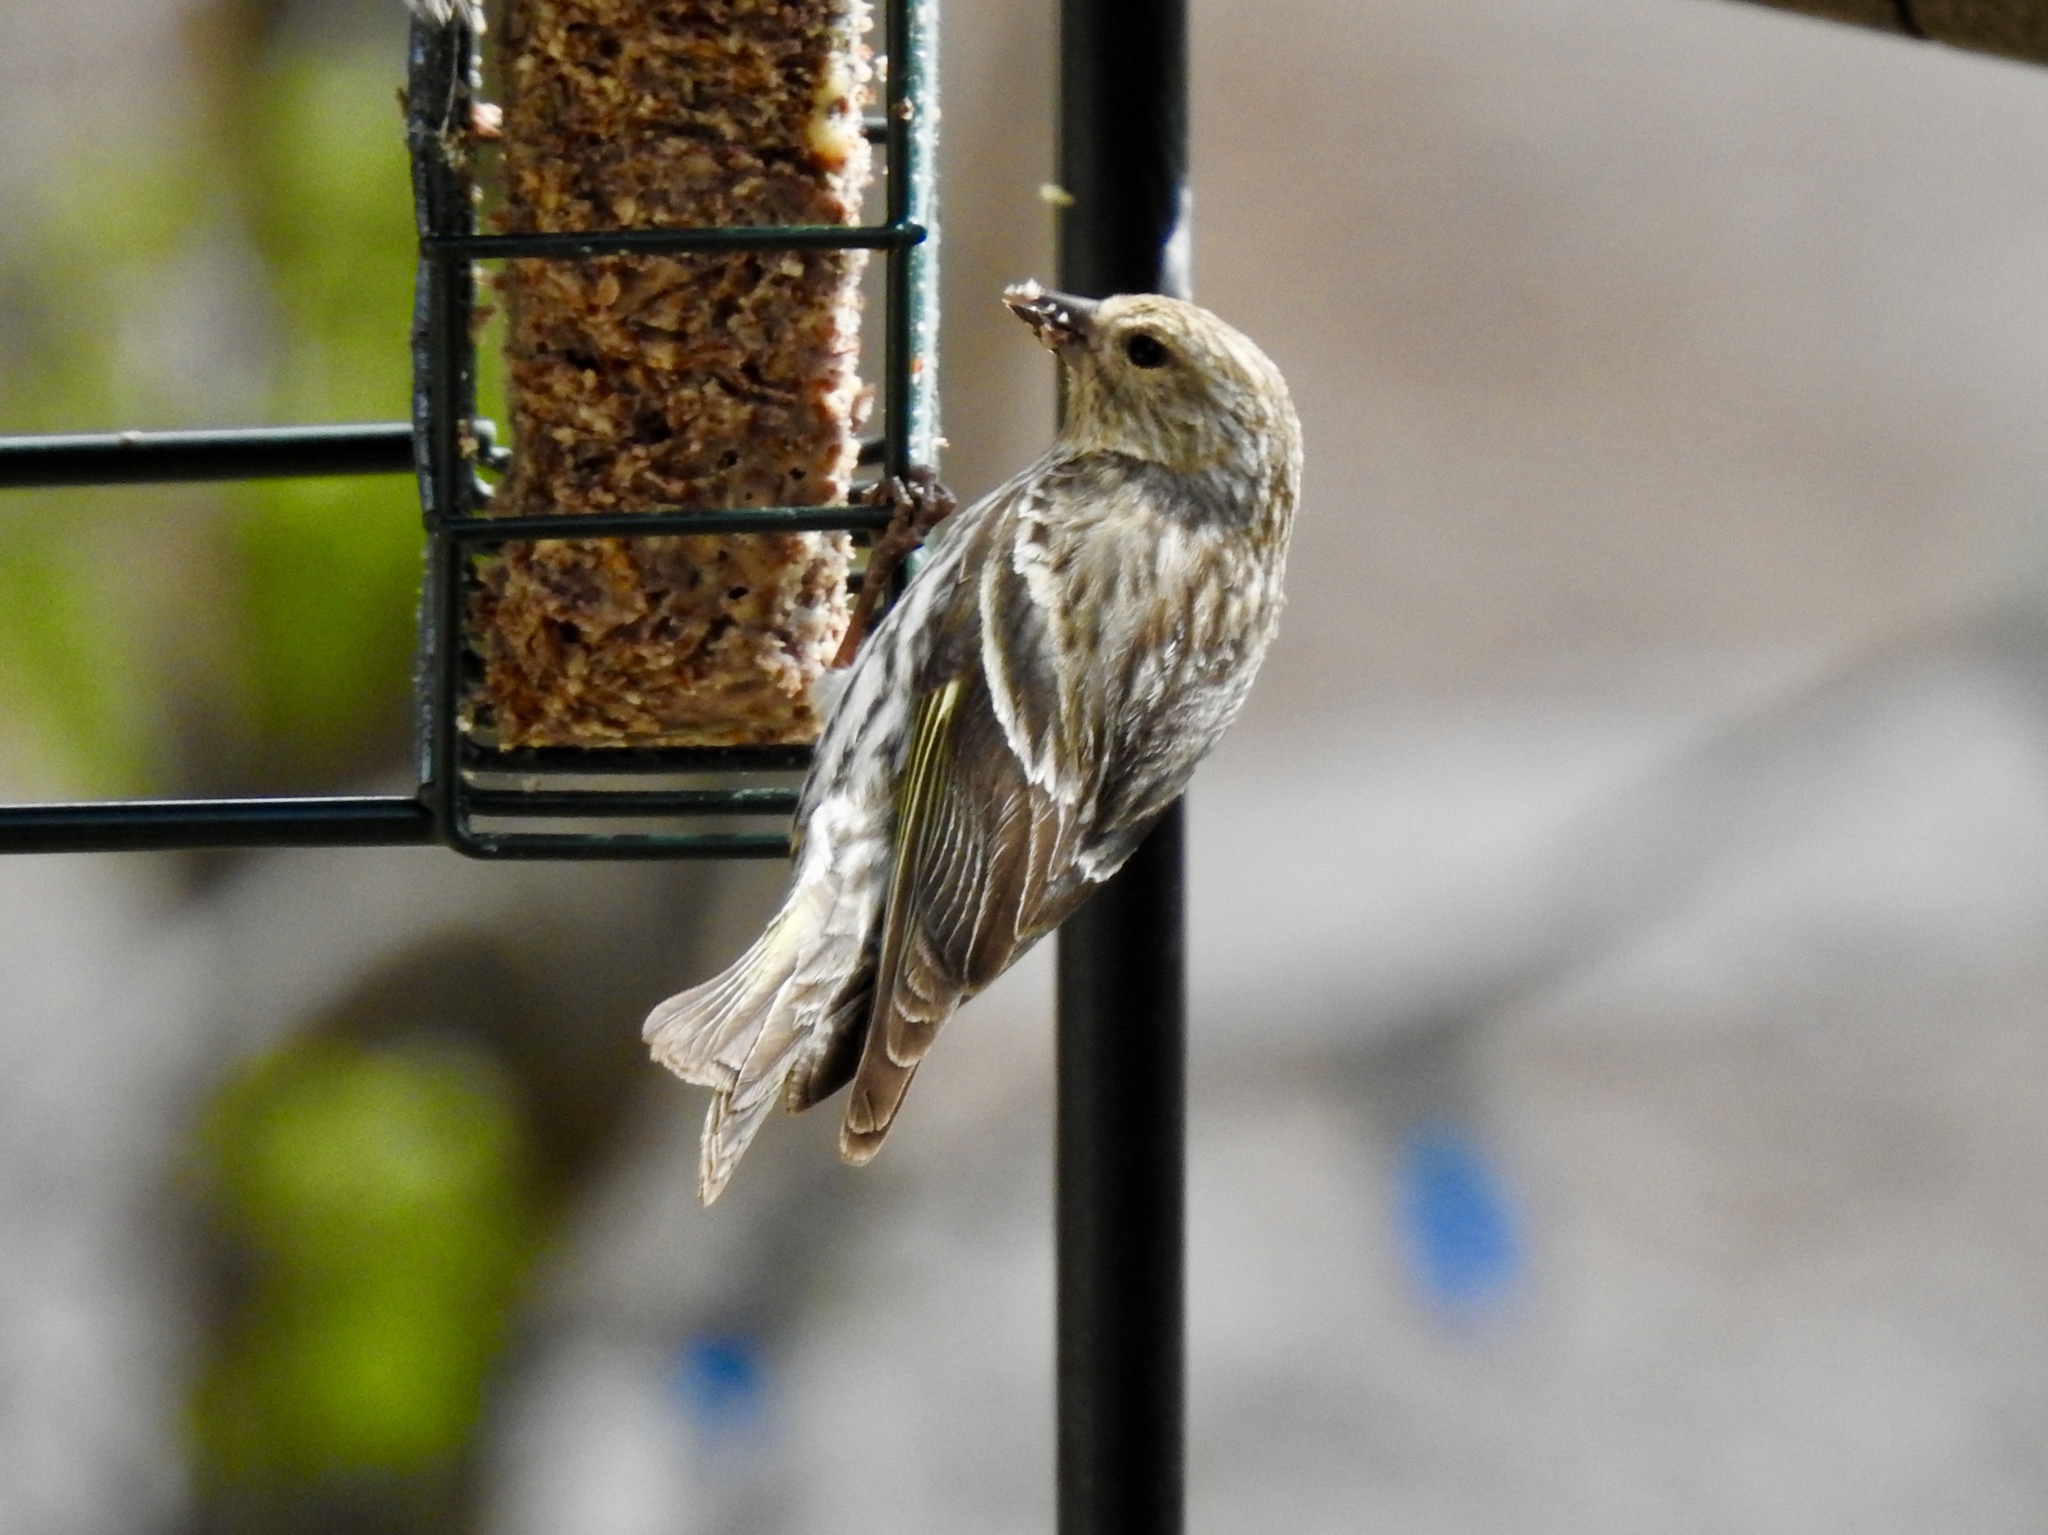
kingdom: Animalia
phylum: Chordata
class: Aves
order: Passeriformes
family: Fringillidae
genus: Spinus
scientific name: Spinus pinus
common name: Pine siskin
